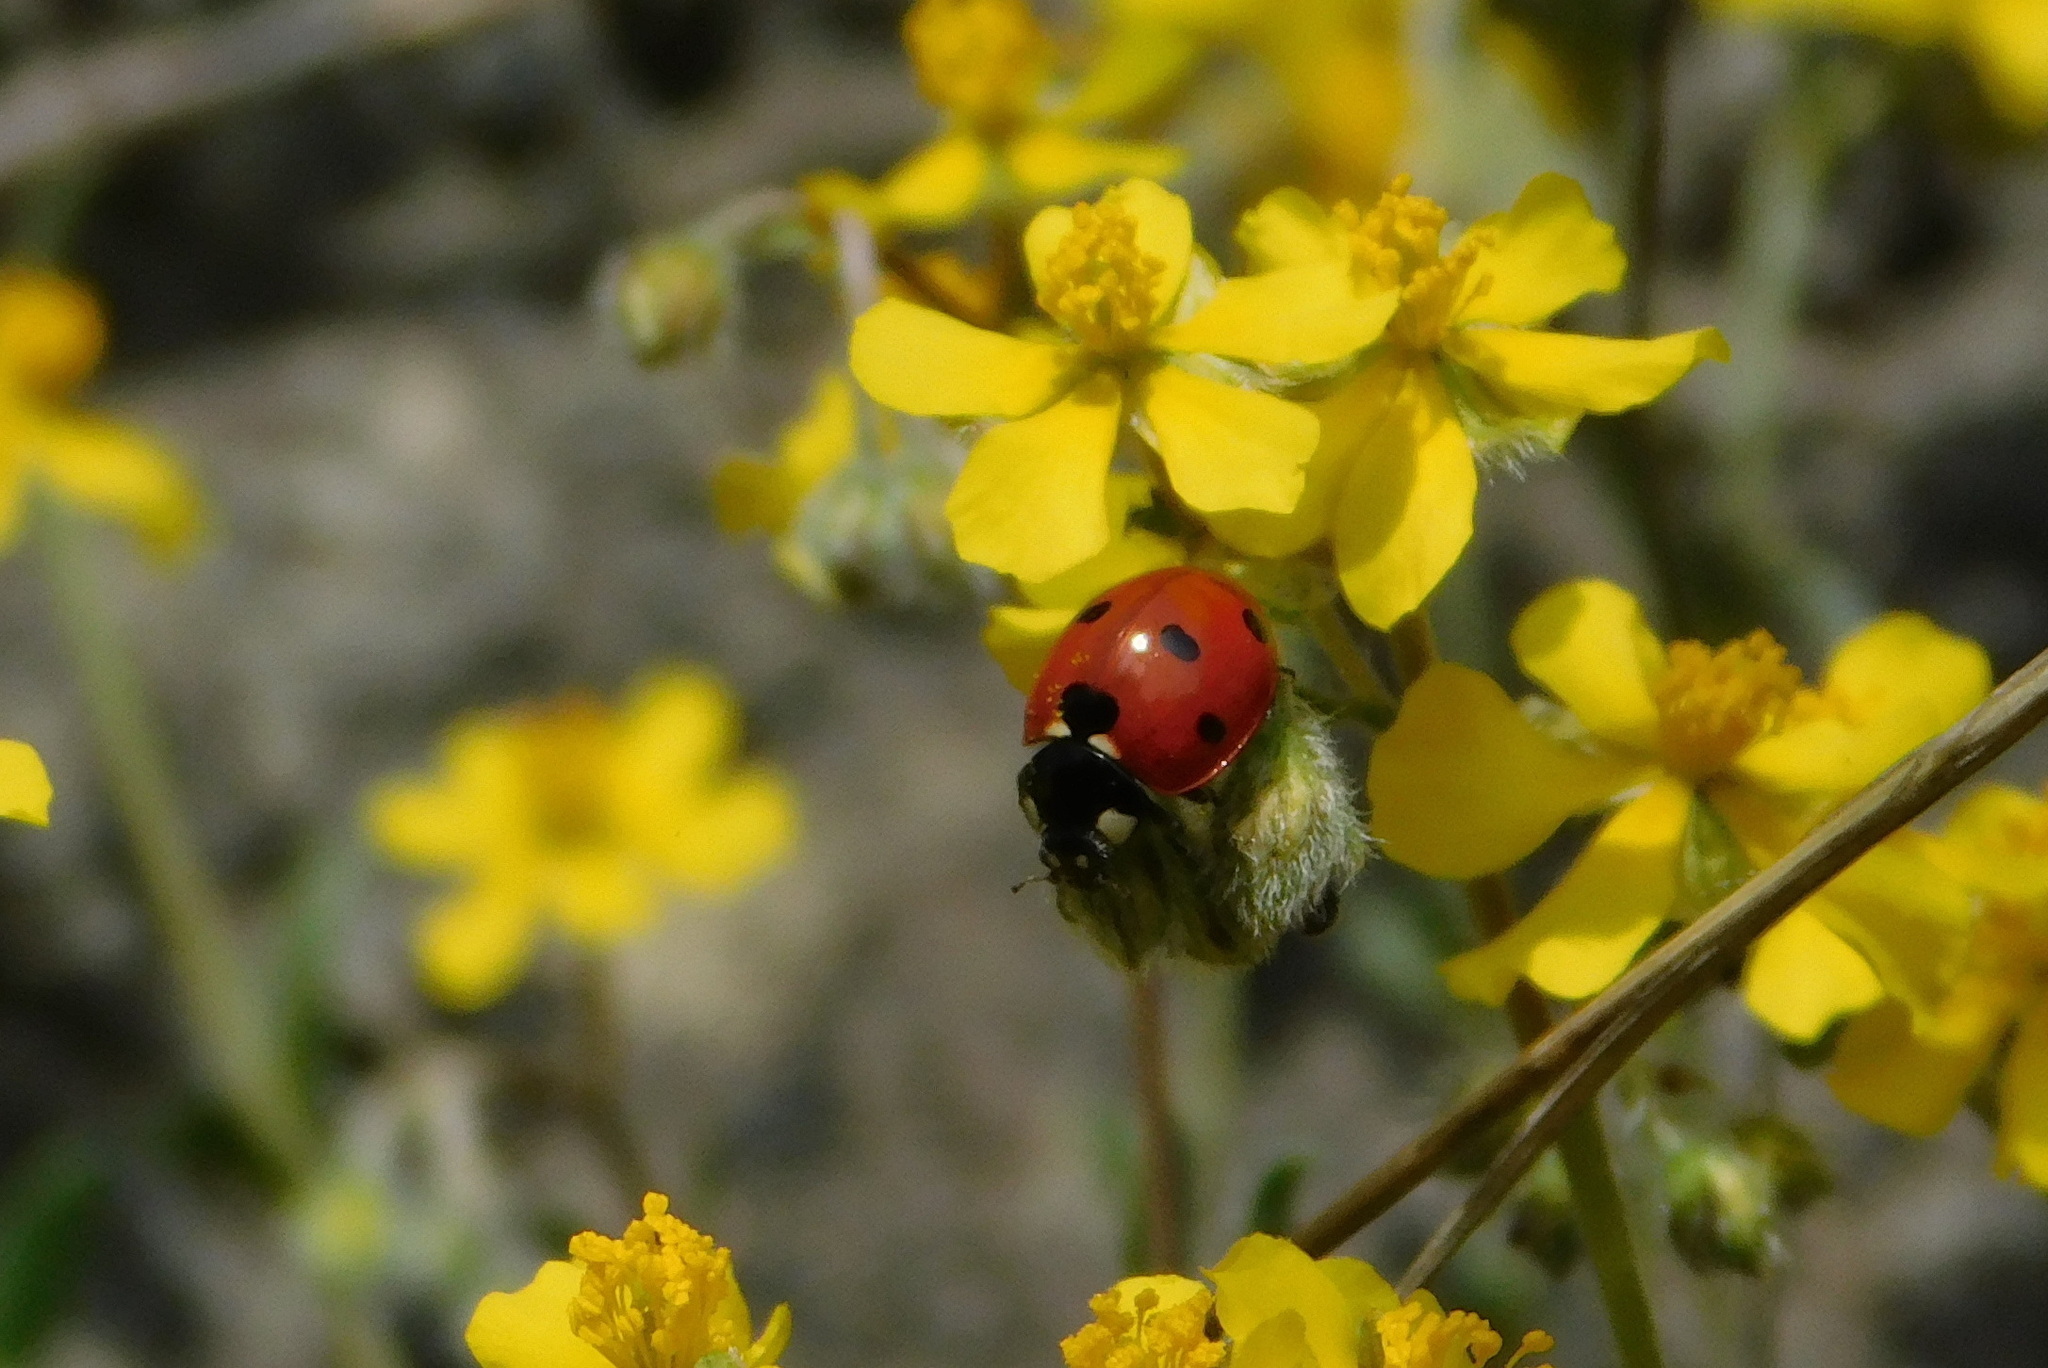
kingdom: Animalia
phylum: Arthropoda
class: Insecta
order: Coleoptera
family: Coccinellidae
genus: Coccinella
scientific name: Coccinella septempunctata
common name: Sevenspotted lady beetle
